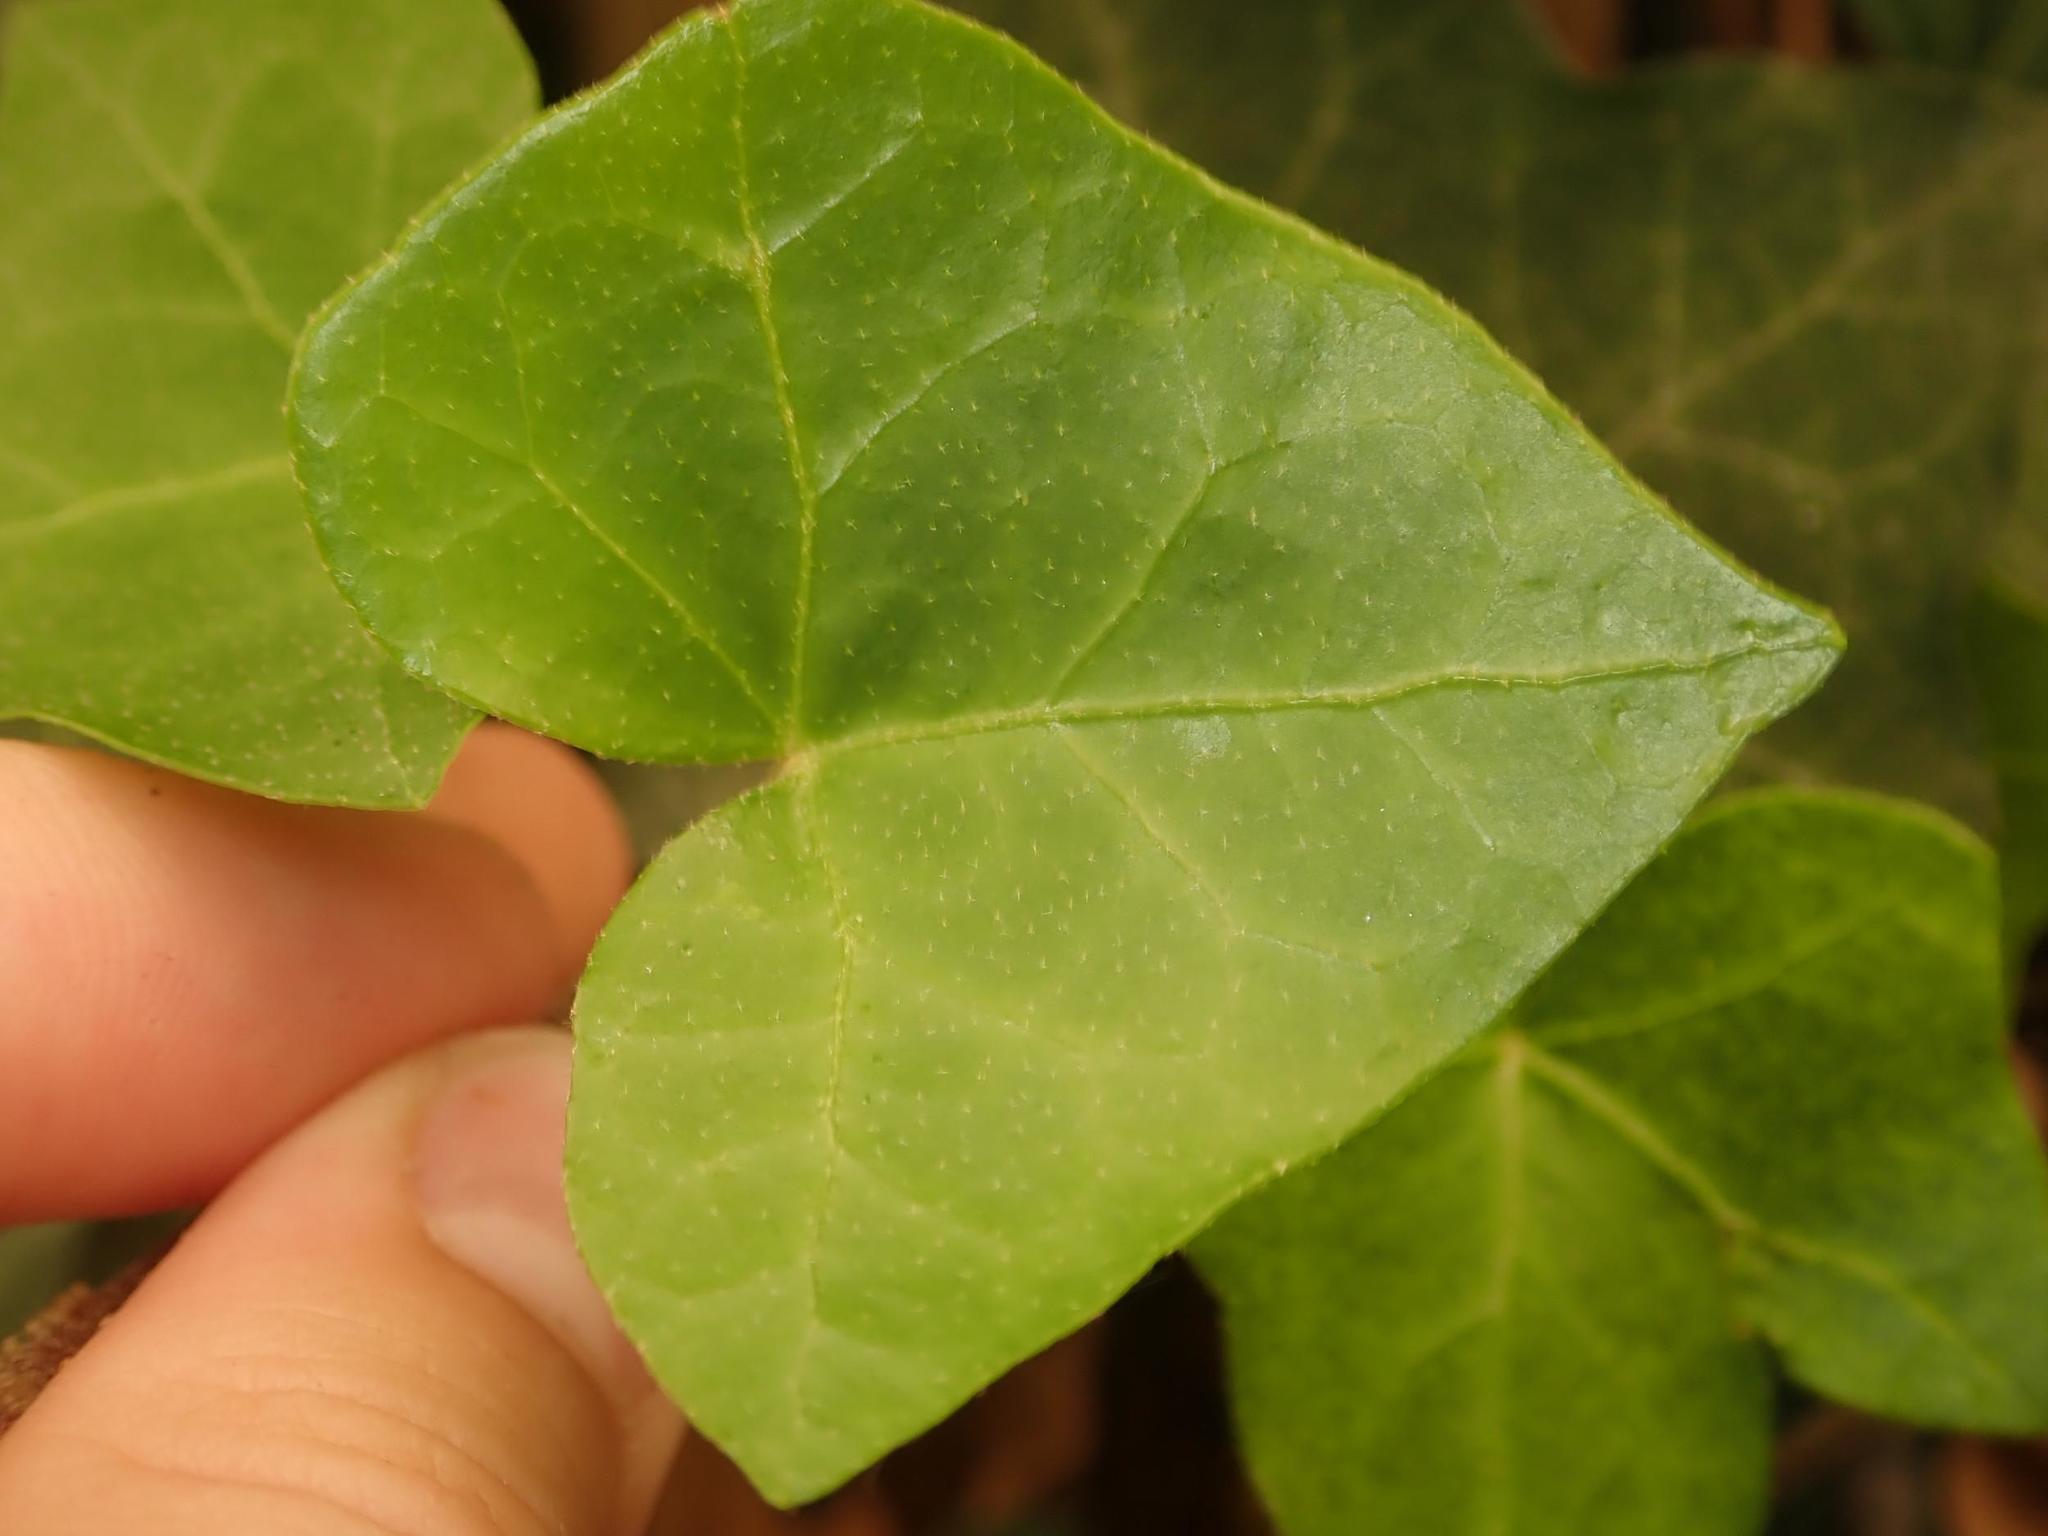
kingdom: Plantae
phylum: Tracheophyta
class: Magnoliopsida
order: Apiales
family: Araliaceae
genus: Hedera
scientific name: Hedera helix
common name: Ivy
